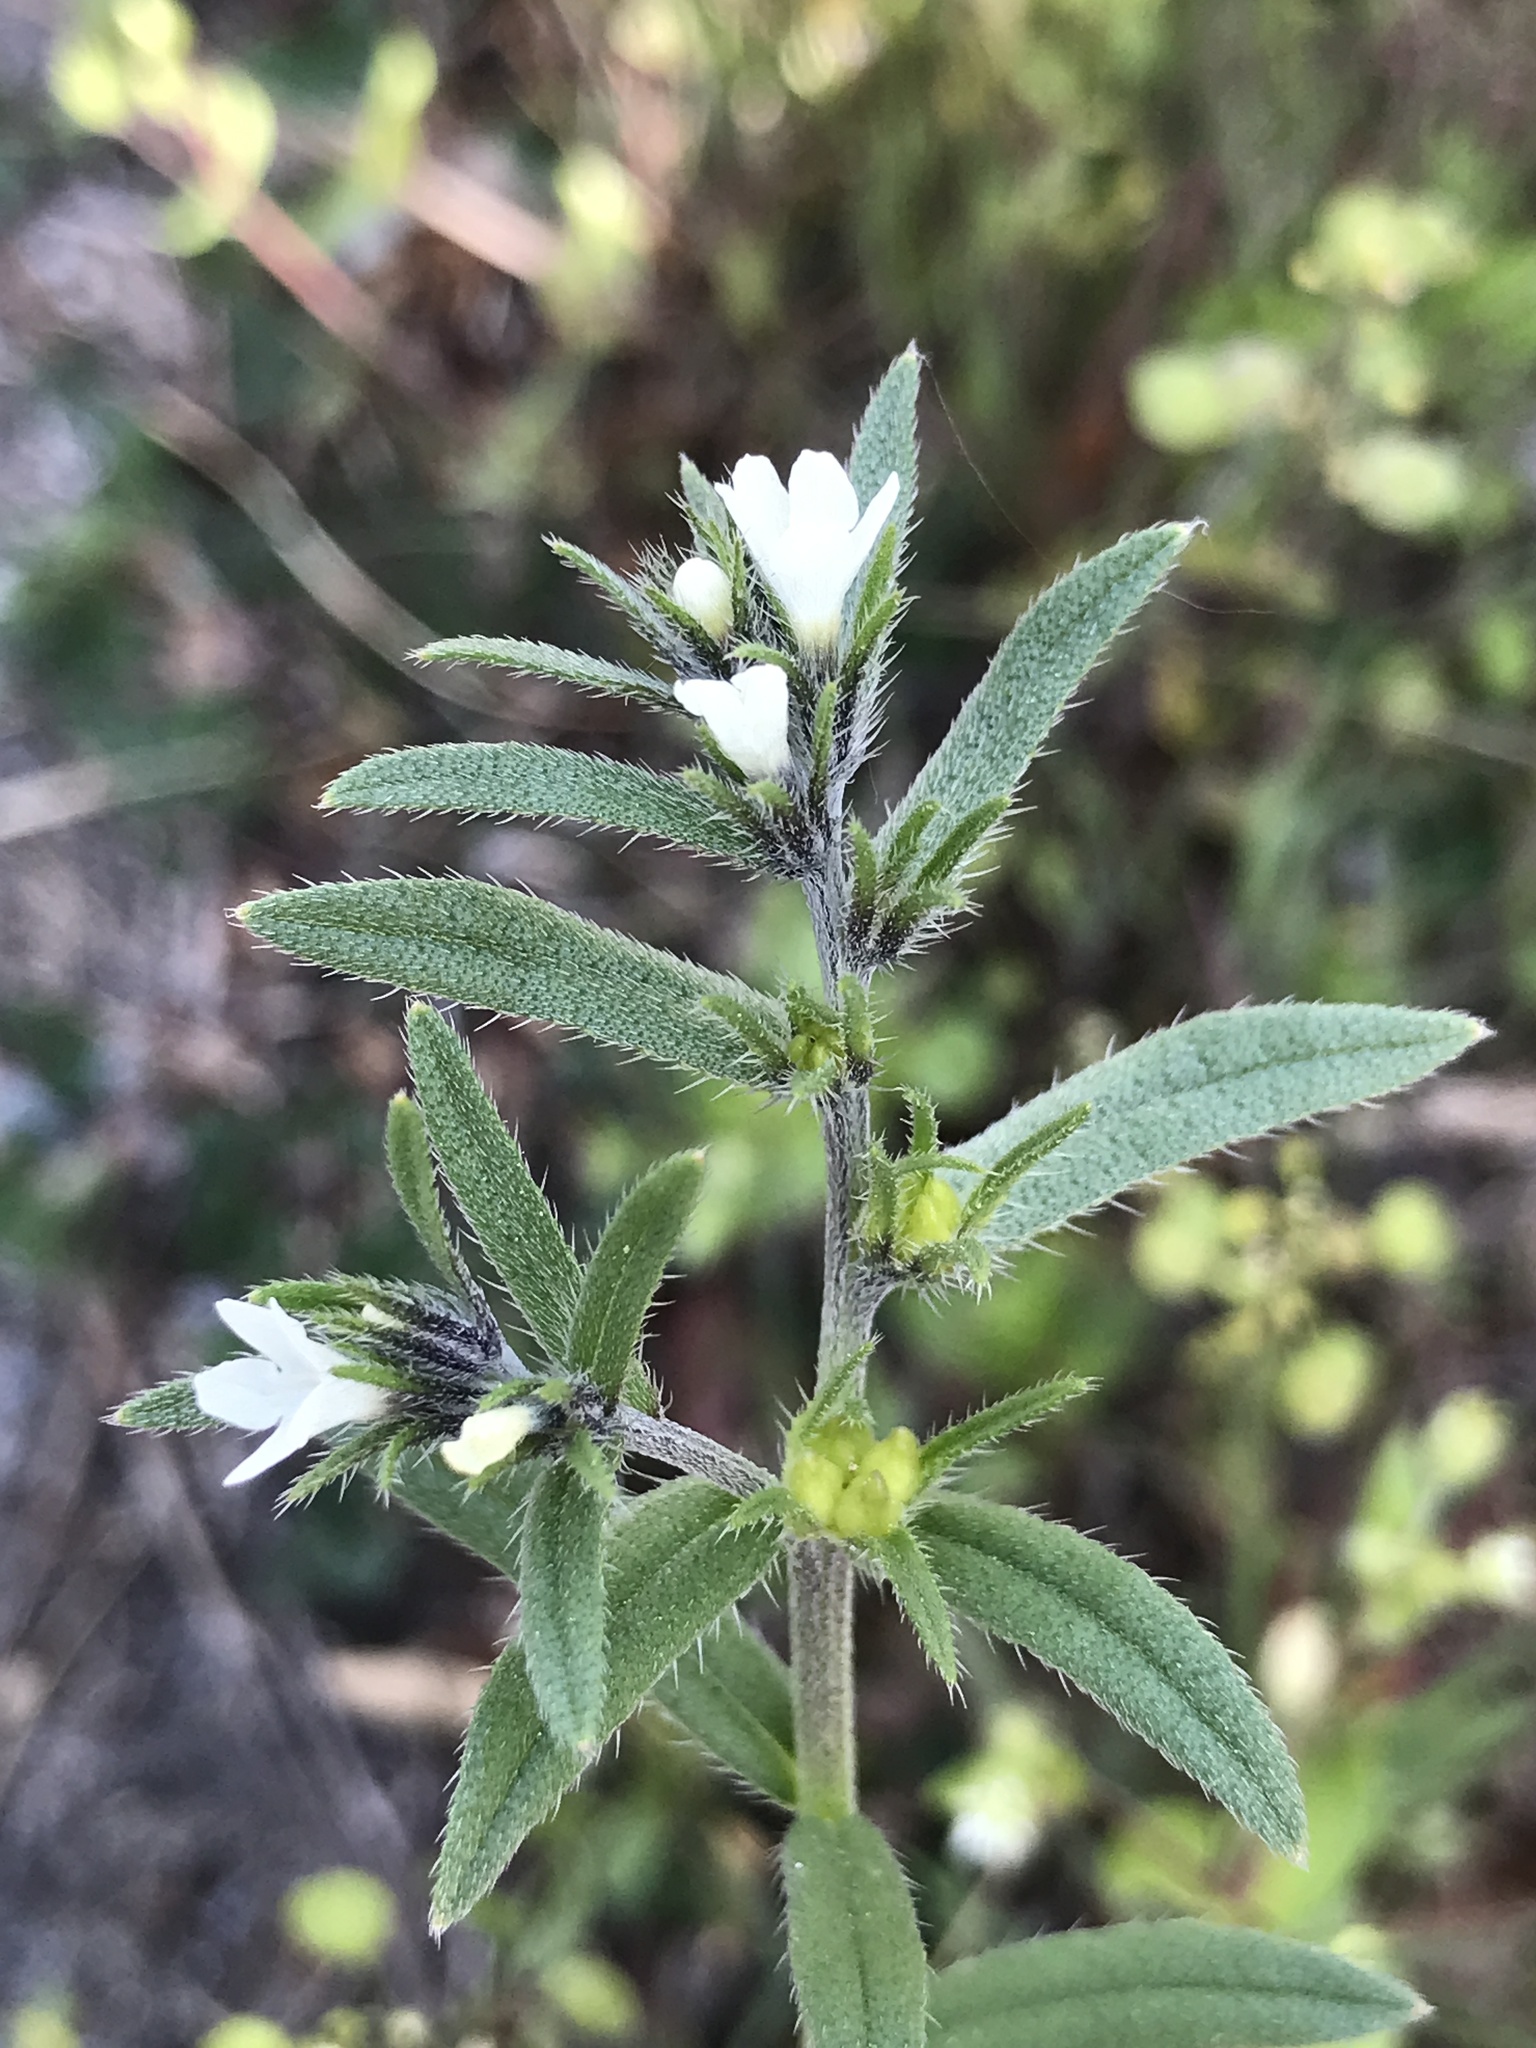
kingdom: Plantae
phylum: Tracheophyta
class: Magnoliopsida
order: Boraginales
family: Boraginaceae
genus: Buglossoides
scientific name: Buglossoides arvensis
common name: Corn gromwell
